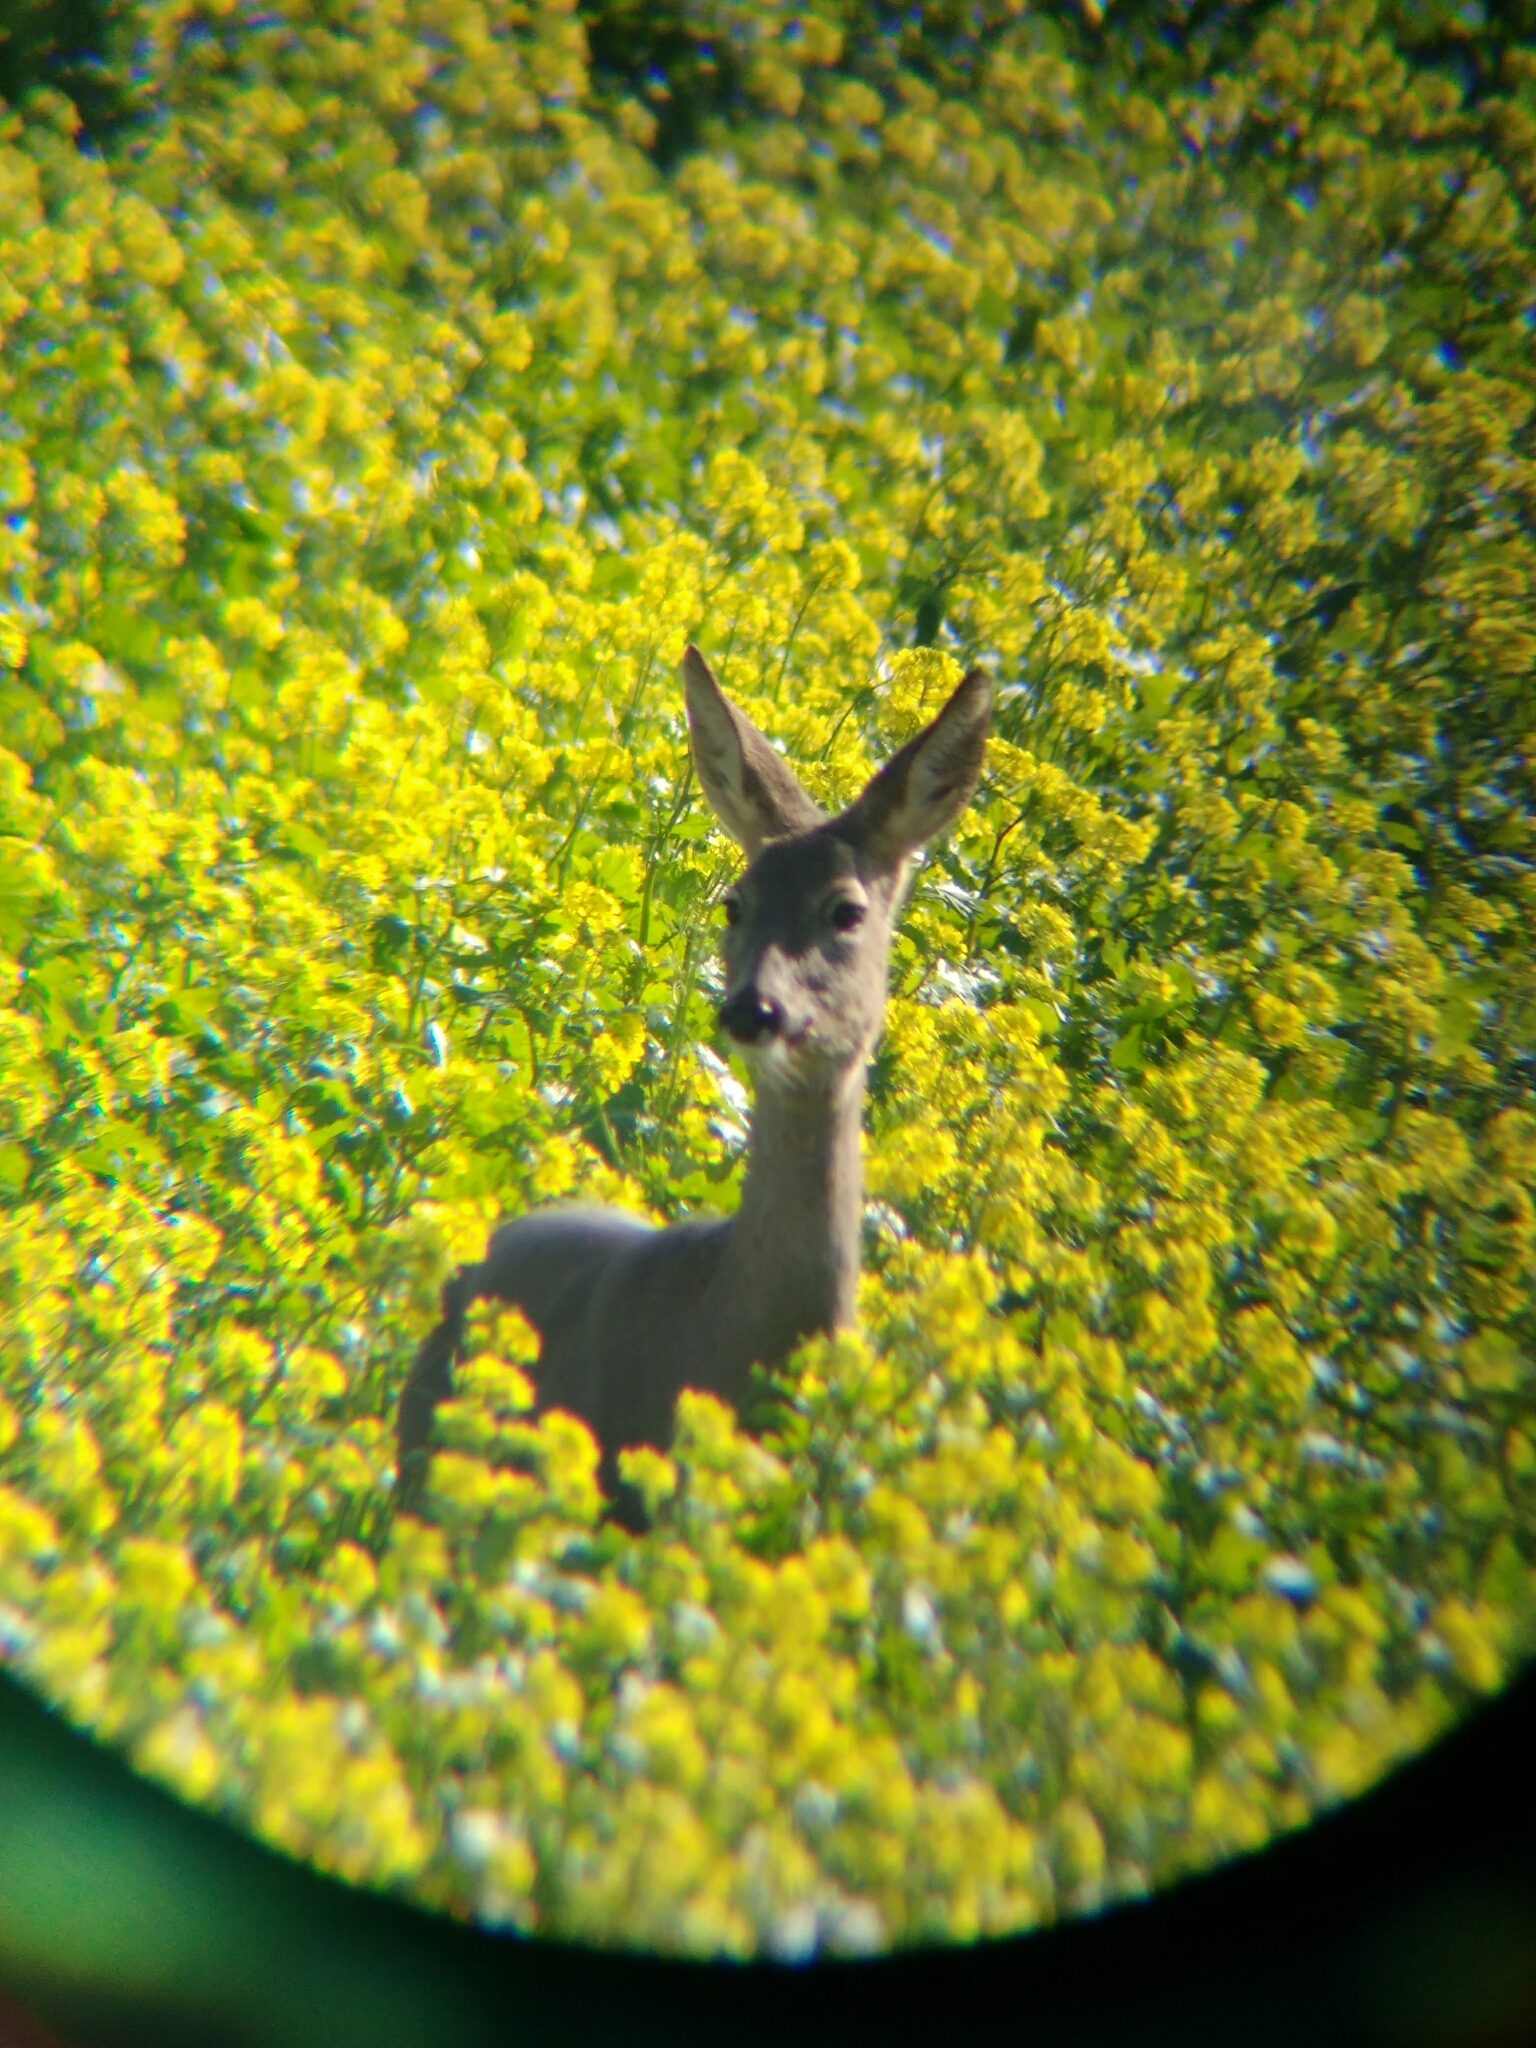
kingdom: Animalia
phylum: Chordata
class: Mammalia
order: Artiodactyla
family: Cervidae
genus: Capreolus
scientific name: Capreolus capreolus
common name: Western roe deer
